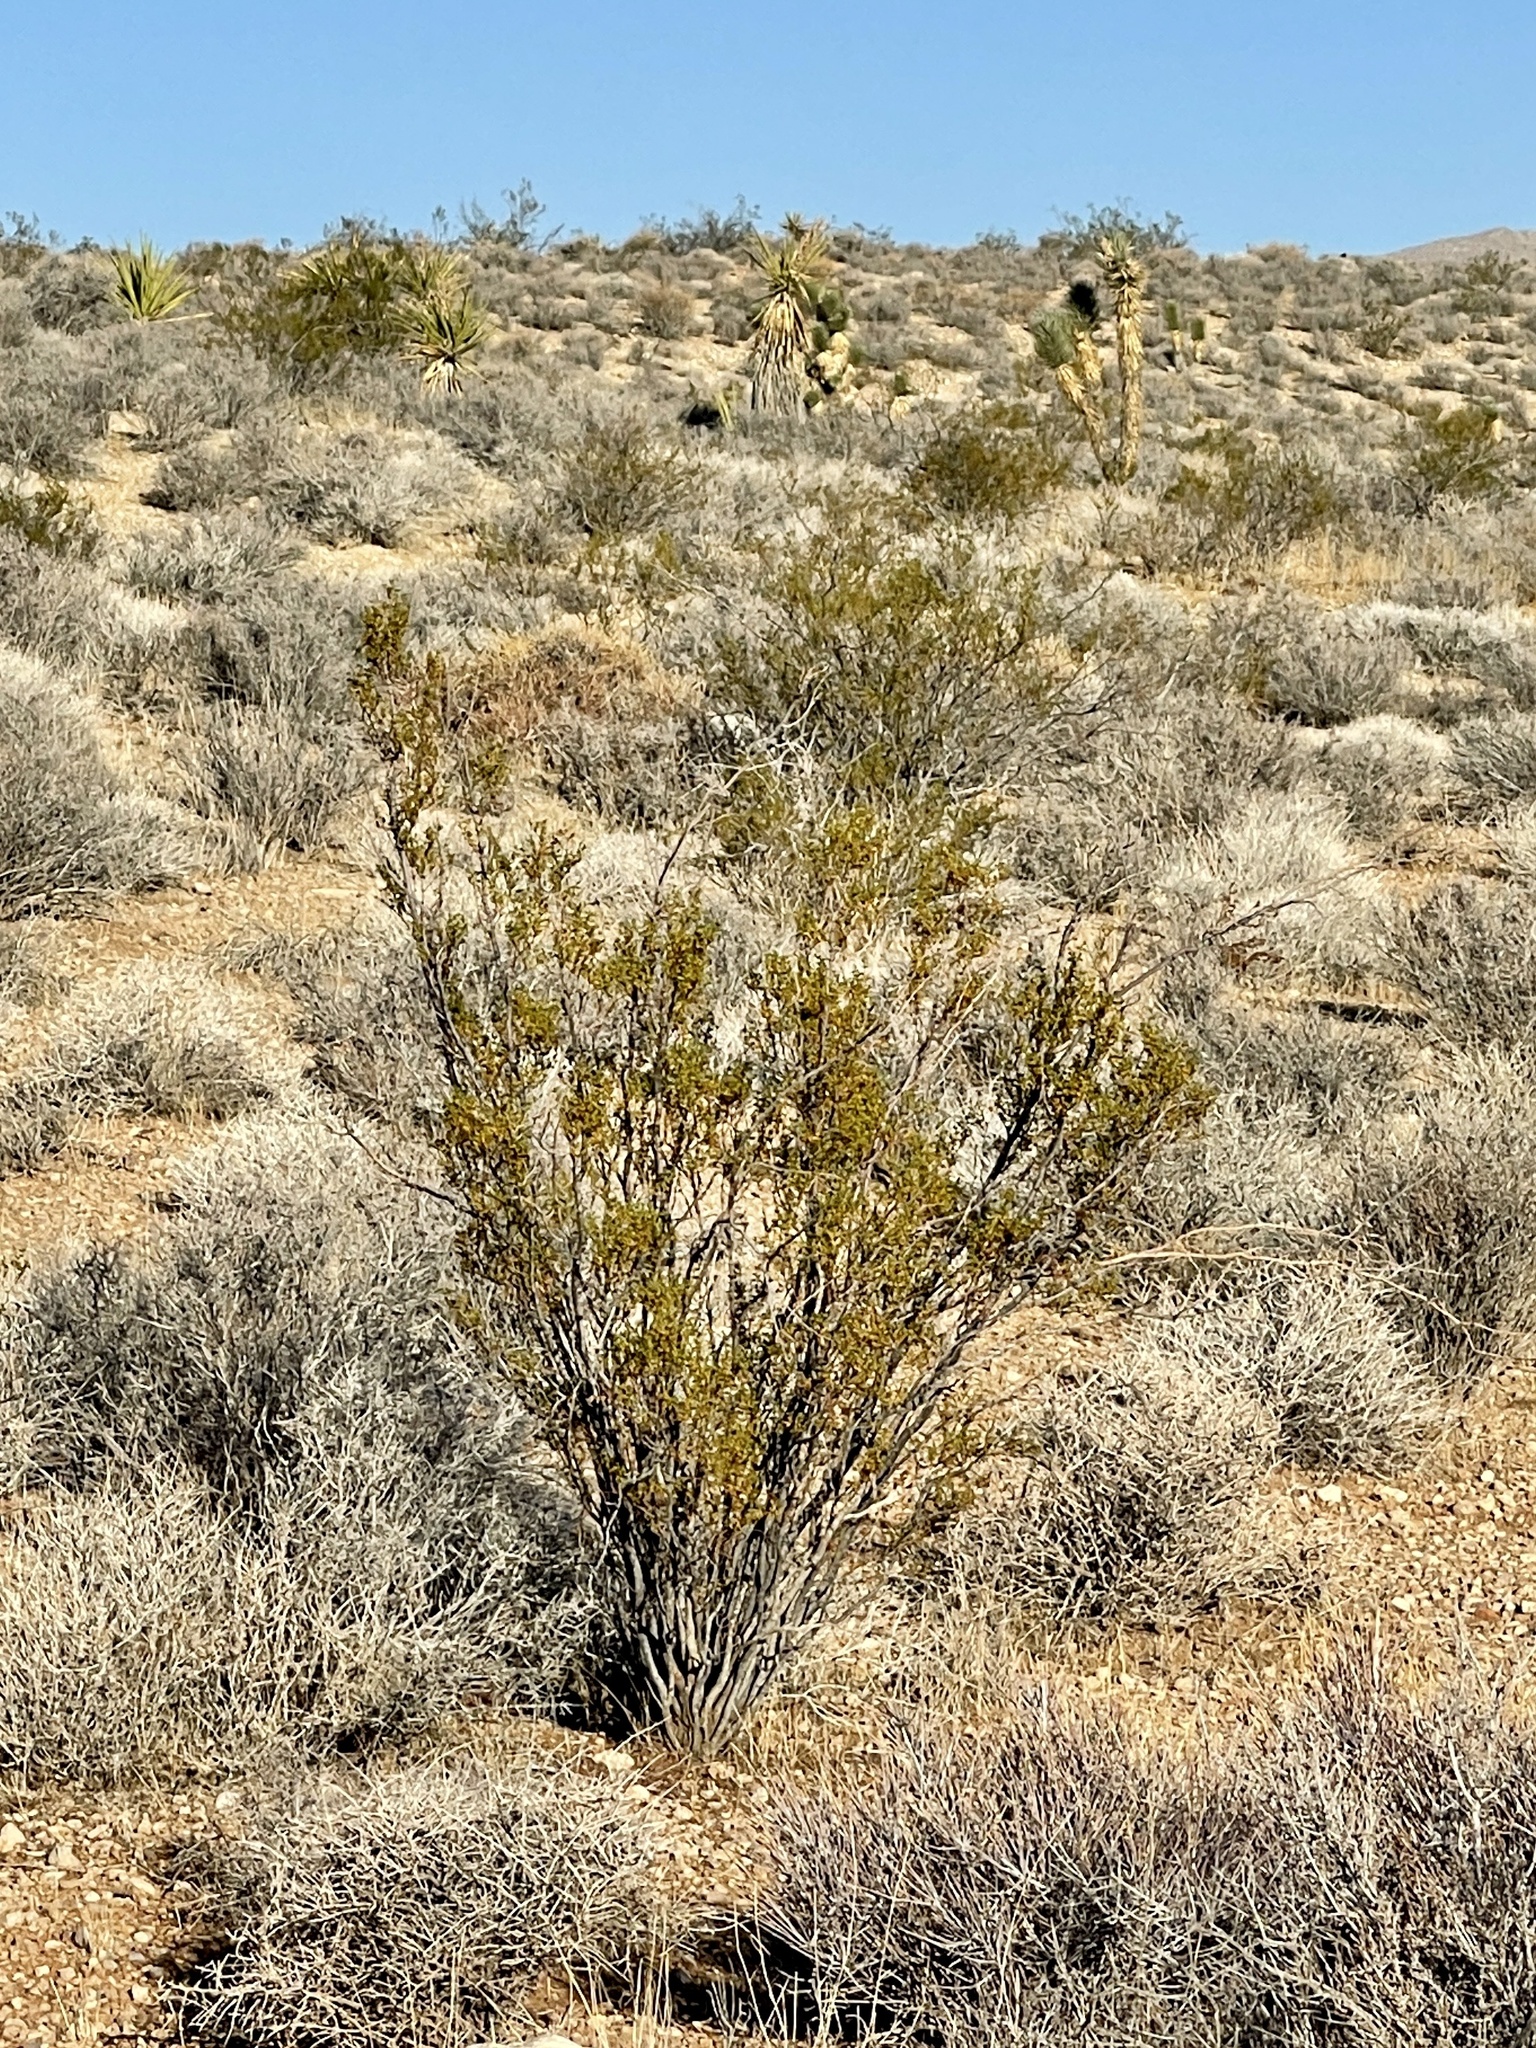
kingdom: Plantae
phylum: Tracheophyta
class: Magnoliopsida
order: Zygophyllales
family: Zygophyllaceae
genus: Larrea
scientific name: Larrea tridentata
